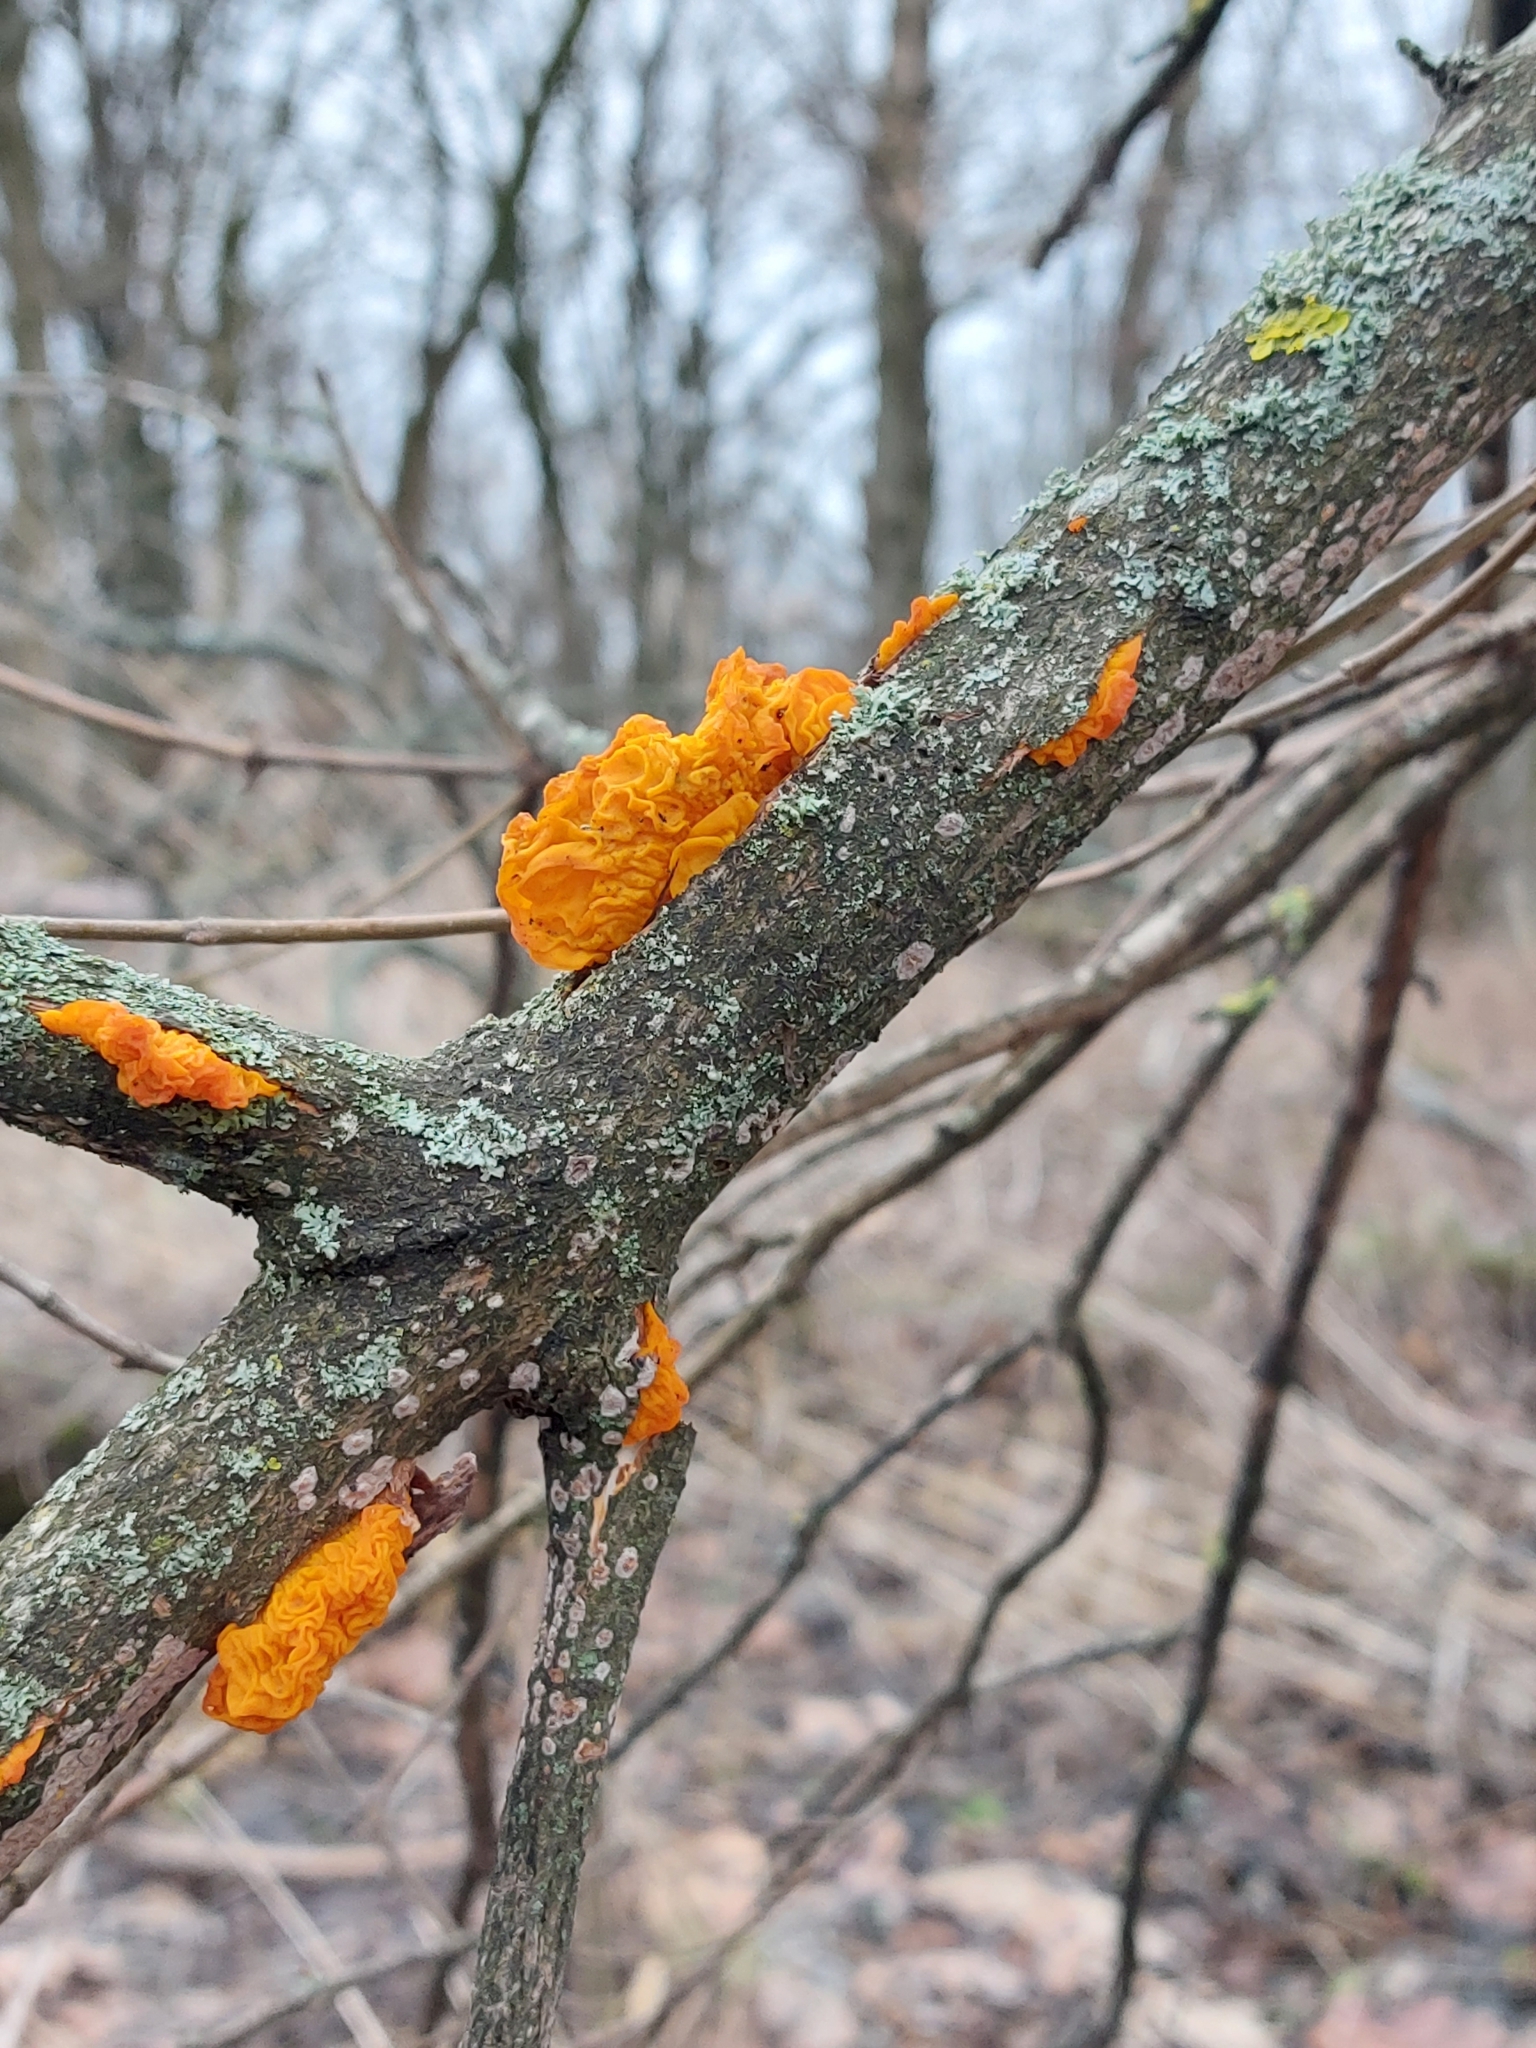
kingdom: Fungi
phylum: Basidiomycota
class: Tremellomycetes
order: Tremellales
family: Tremellaceae
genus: Tremella
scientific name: Tremella mesenterica
